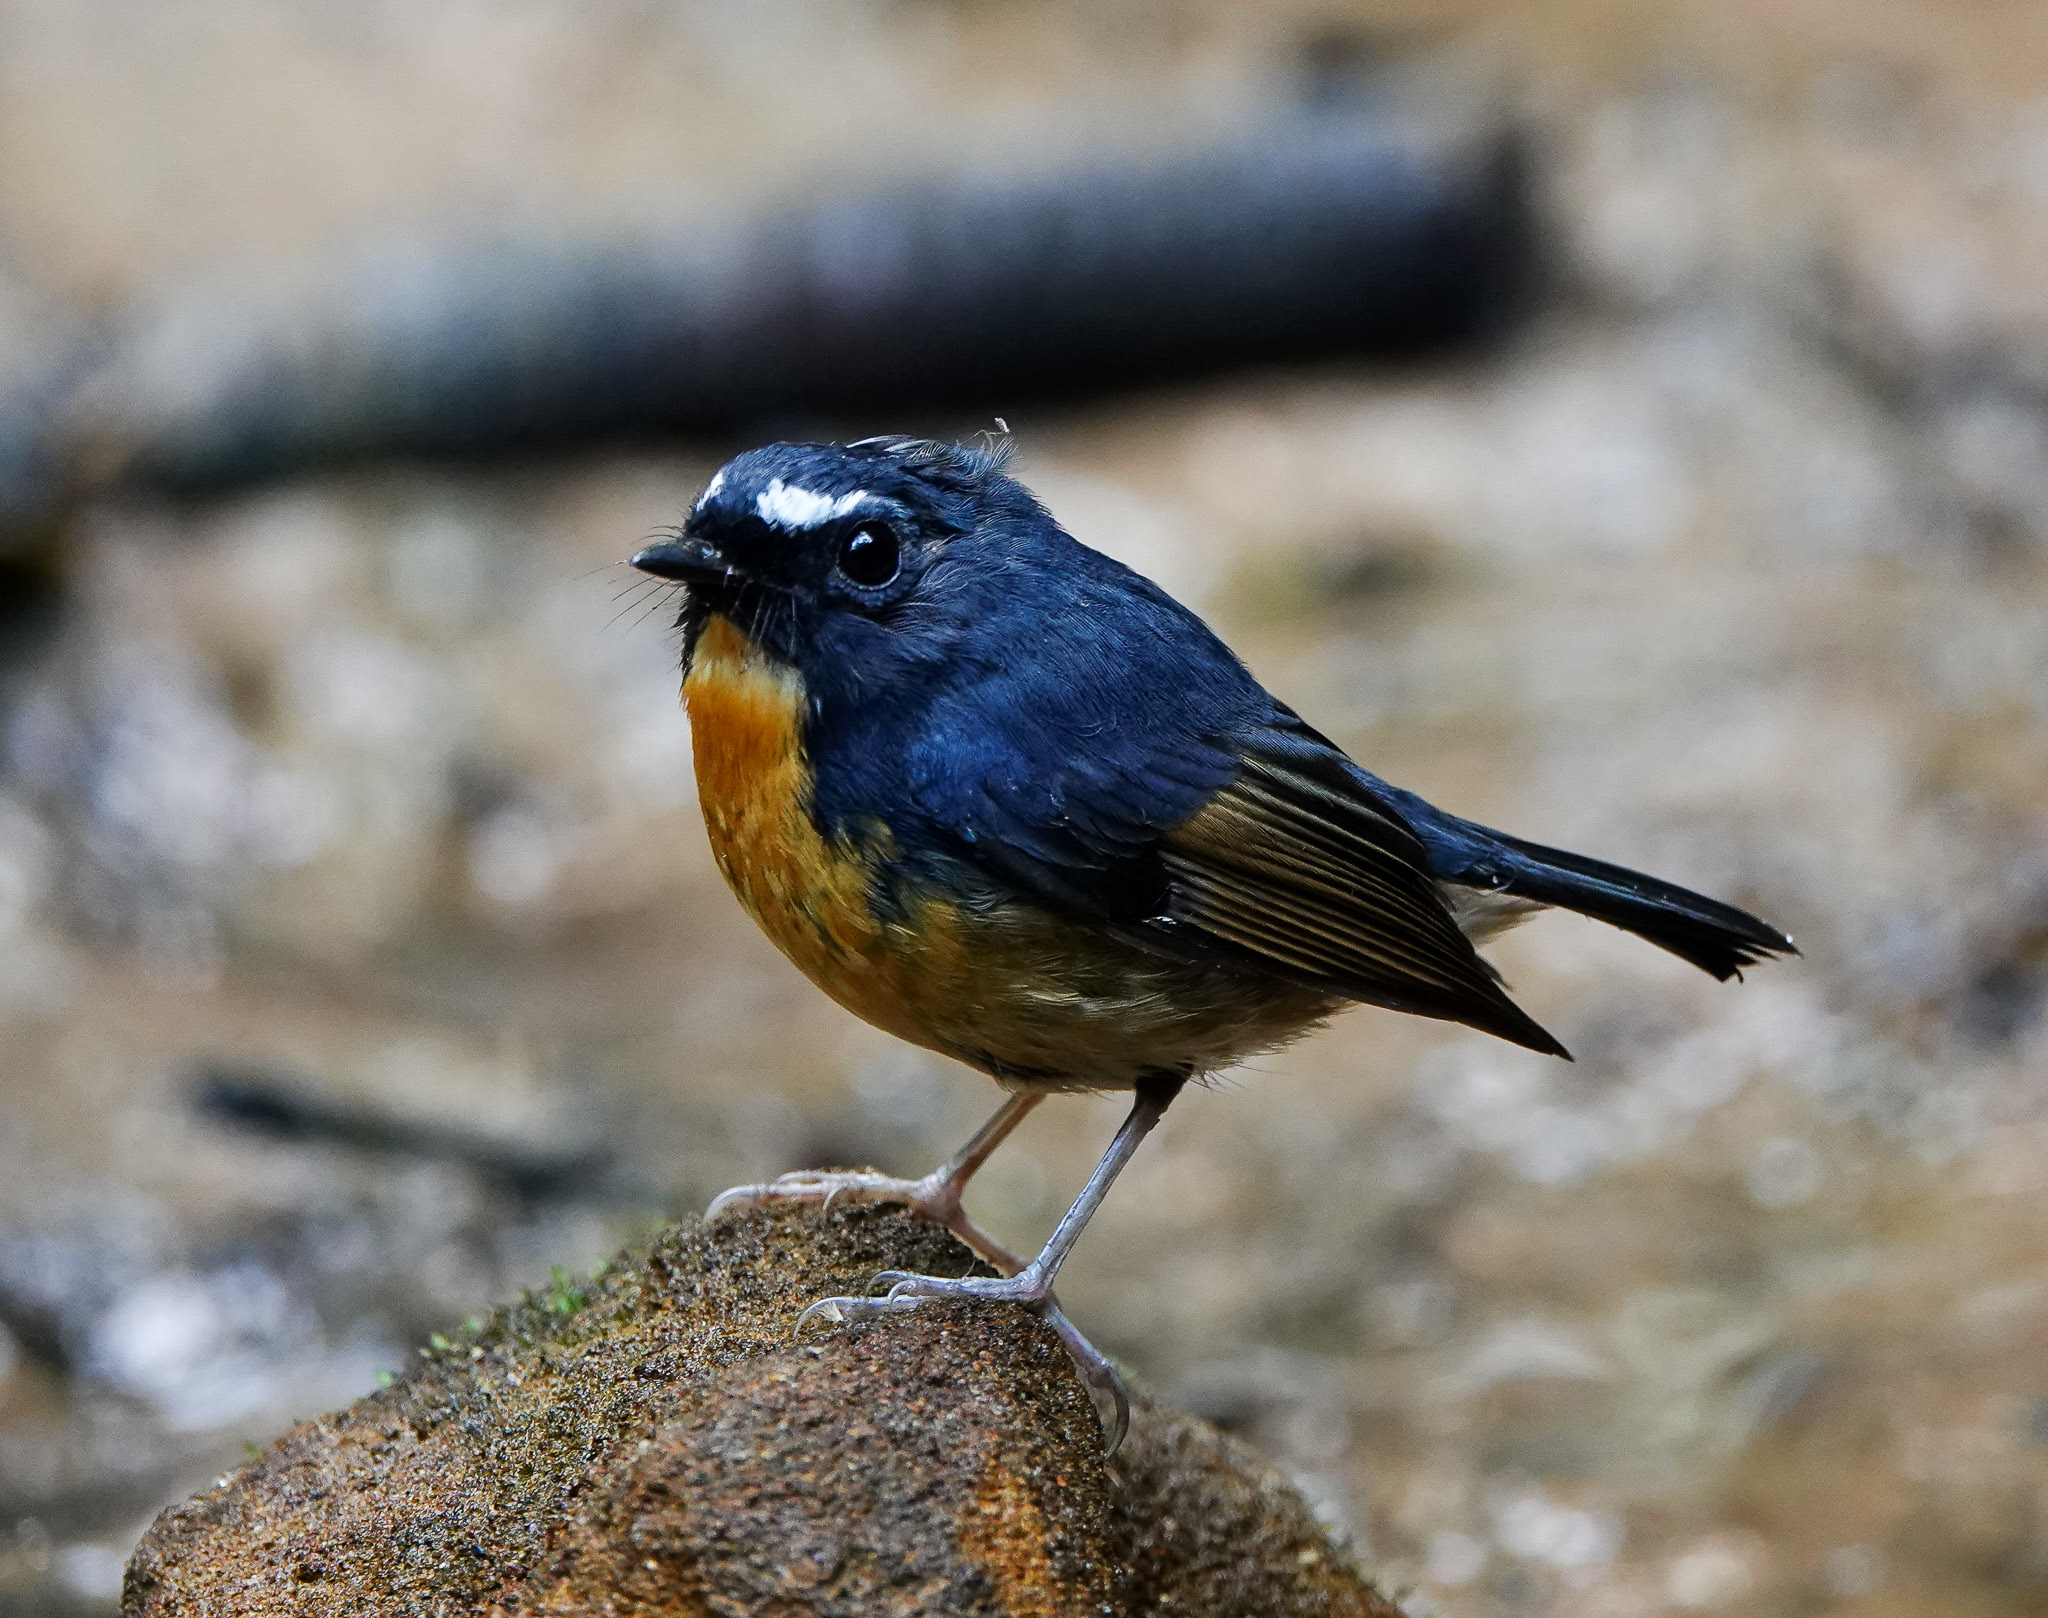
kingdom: Animalia
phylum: Chordata
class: Aves
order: Passeriformes
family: Muscicapidae
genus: Ficedula
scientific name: Ficedula hyperythra
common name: Snowy-browed flycatcher
